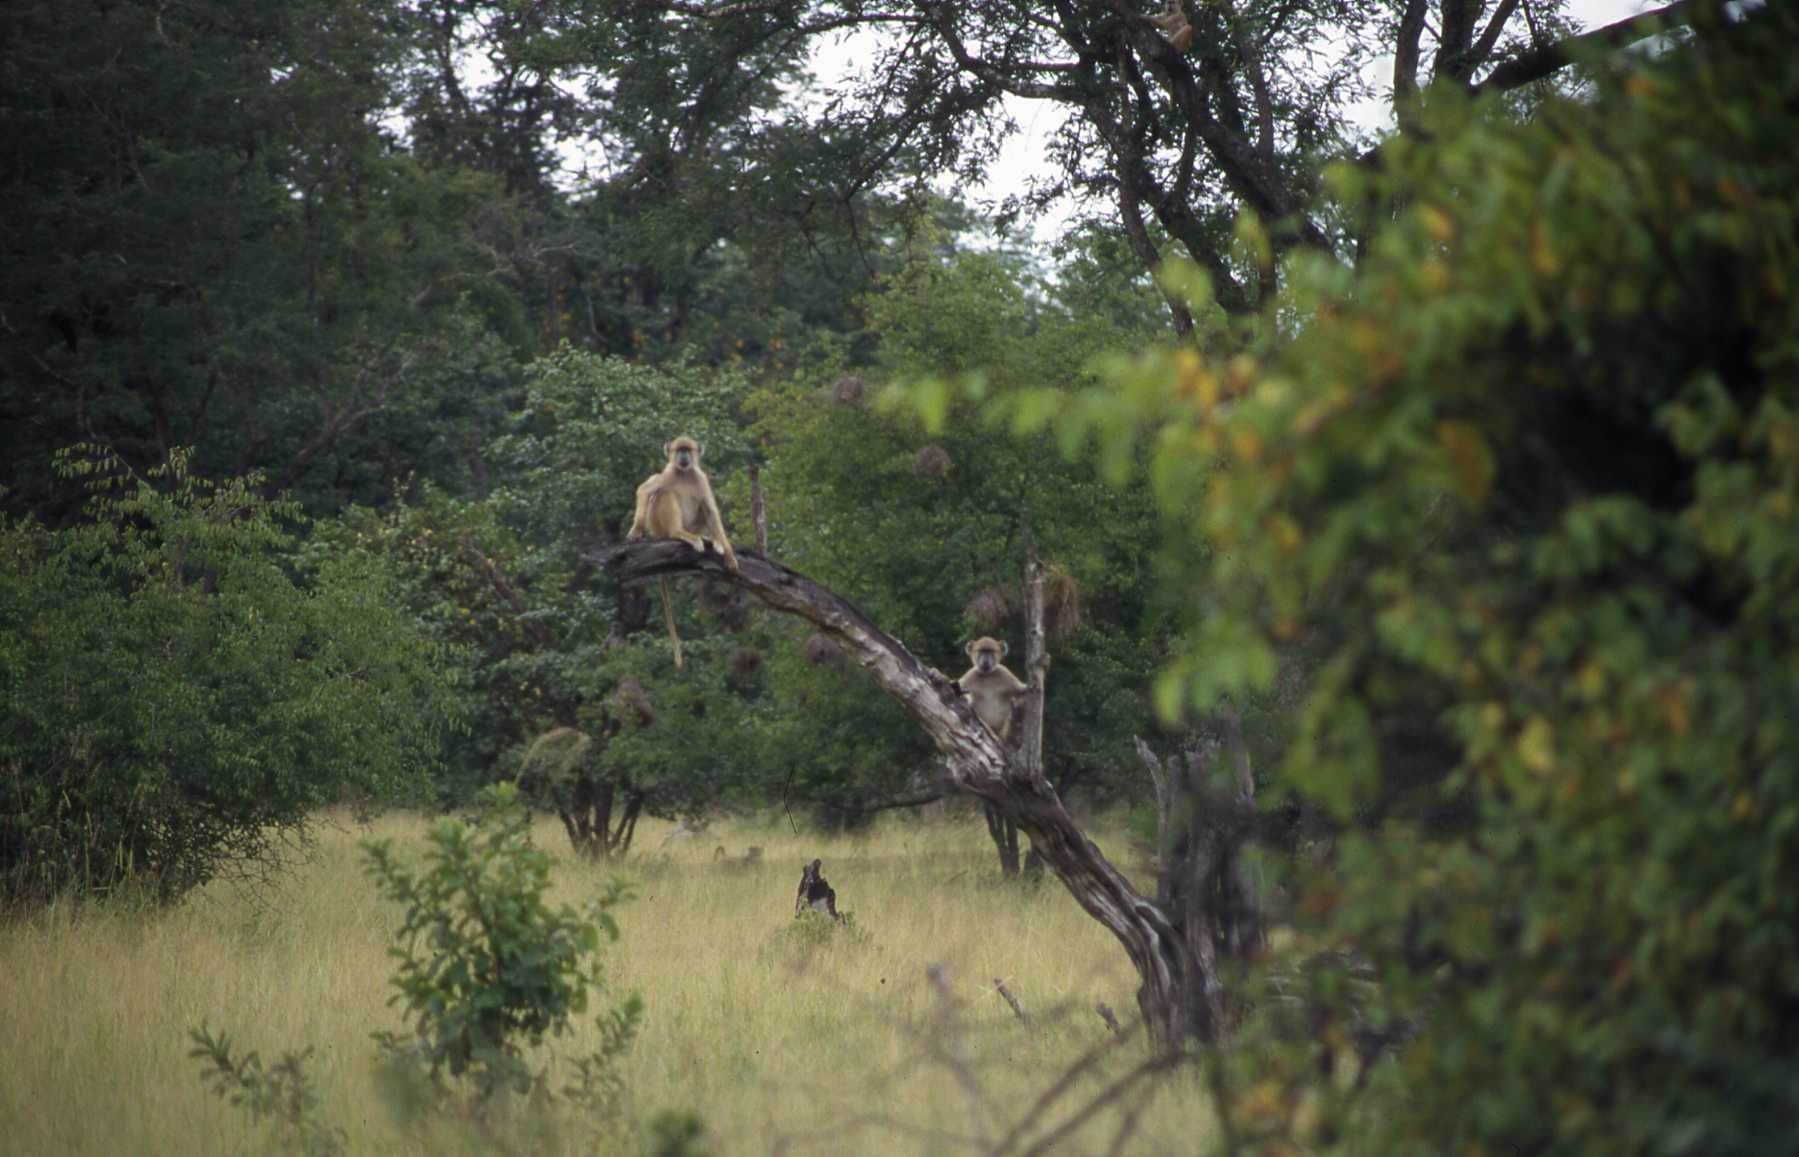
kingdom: Animalia
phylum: Chordata
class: Mammalia
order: Primates
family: Cercopithecidae
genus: Papio
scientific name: Papio cynocephalus
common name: Yellow baboon
